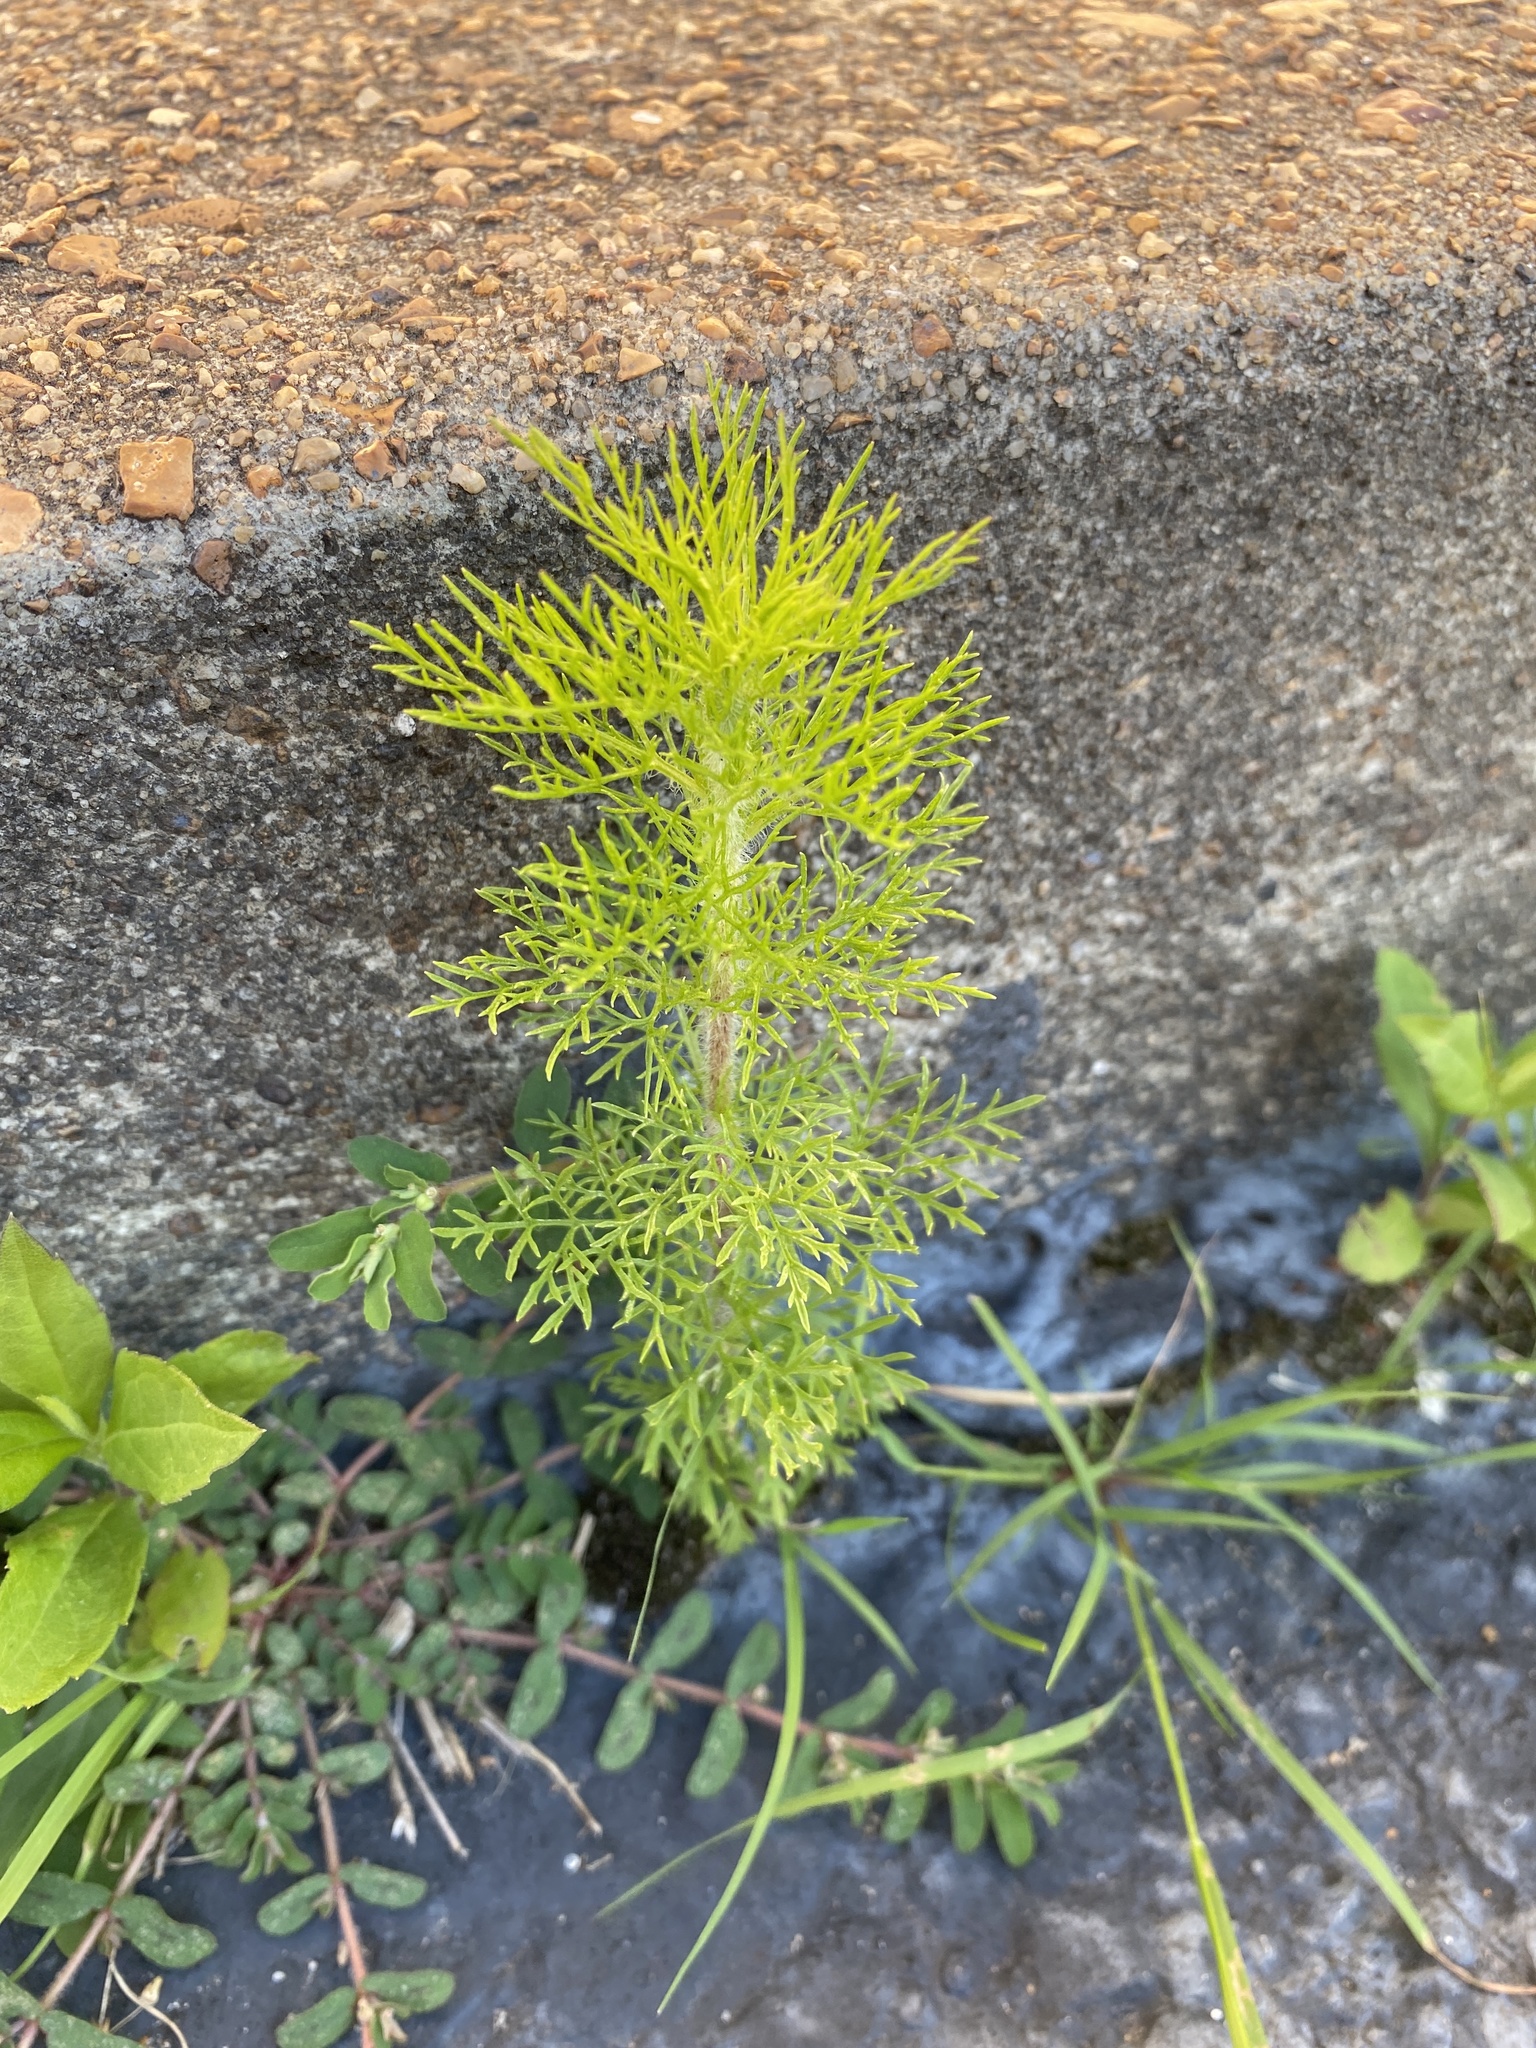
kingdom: Plantae
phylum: Tracheophyta
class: Magnoliopsida
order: Asterales
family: Asteraceae
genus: Eupatorium
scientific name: Eupatorium capillifolium
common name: Dog-fennel
